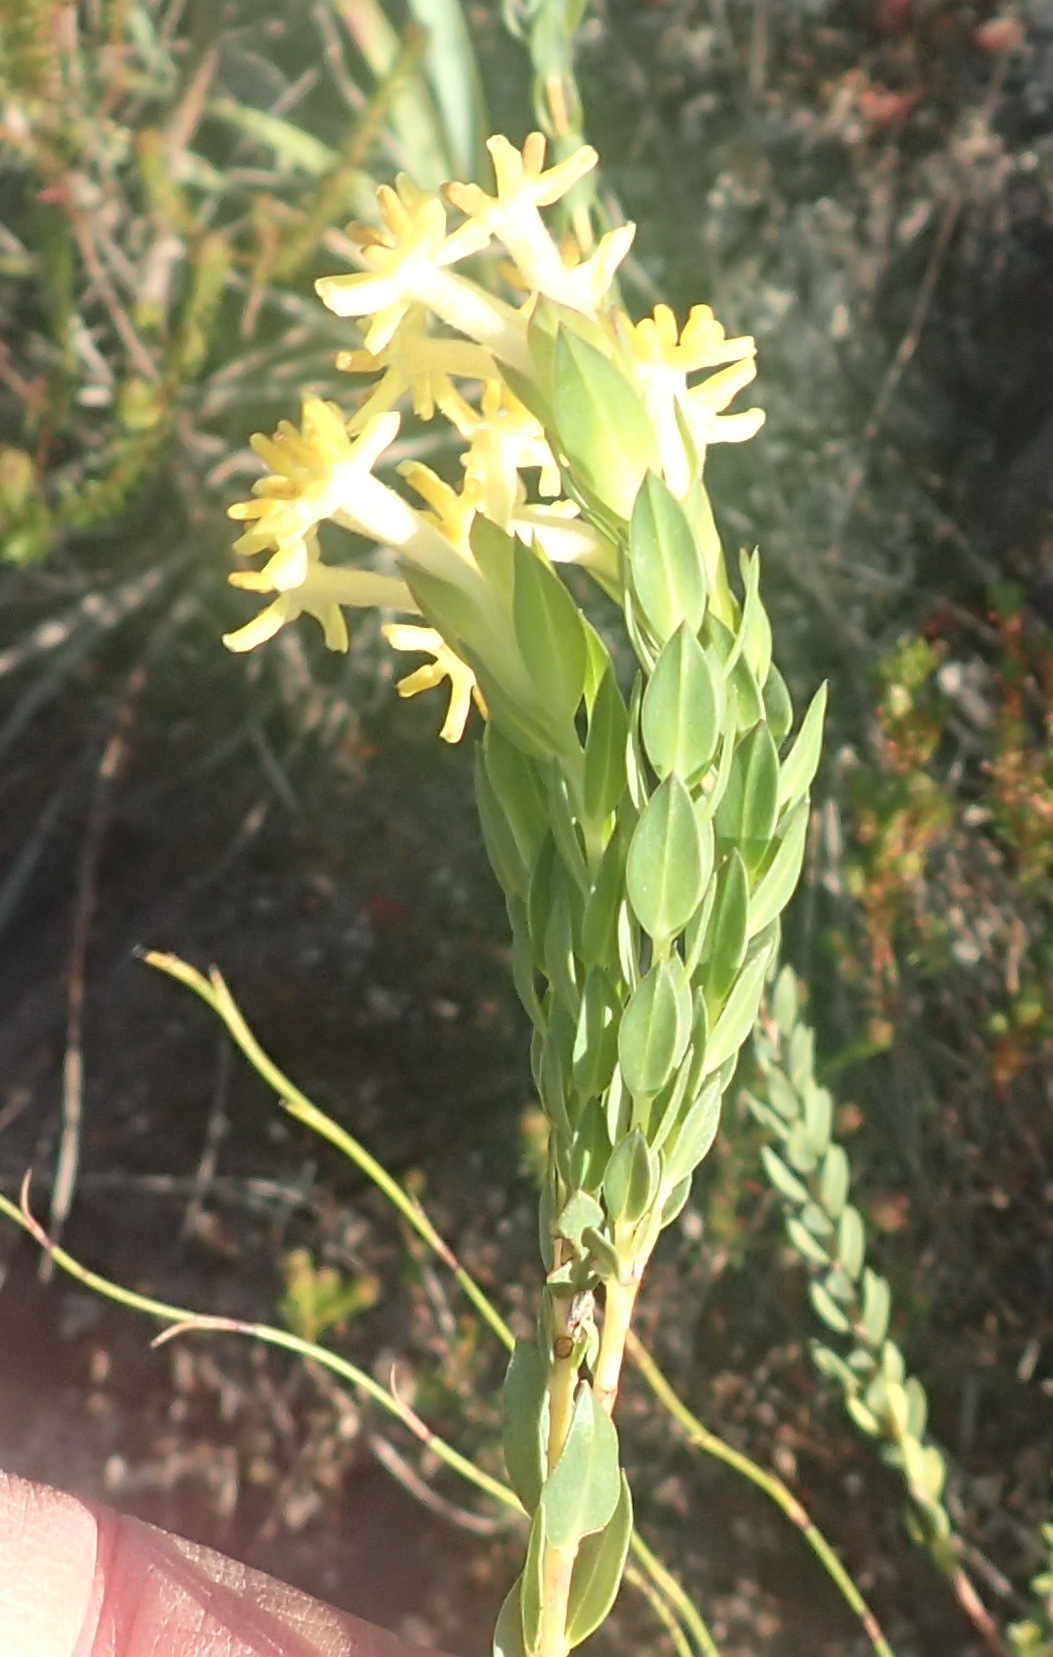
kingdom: Plantae
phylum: Tracheophyta
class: Magnoliopsida
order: Malvales
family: Thymelaeaceae
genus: Gnidia
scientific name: Gnidia oppositifolia
